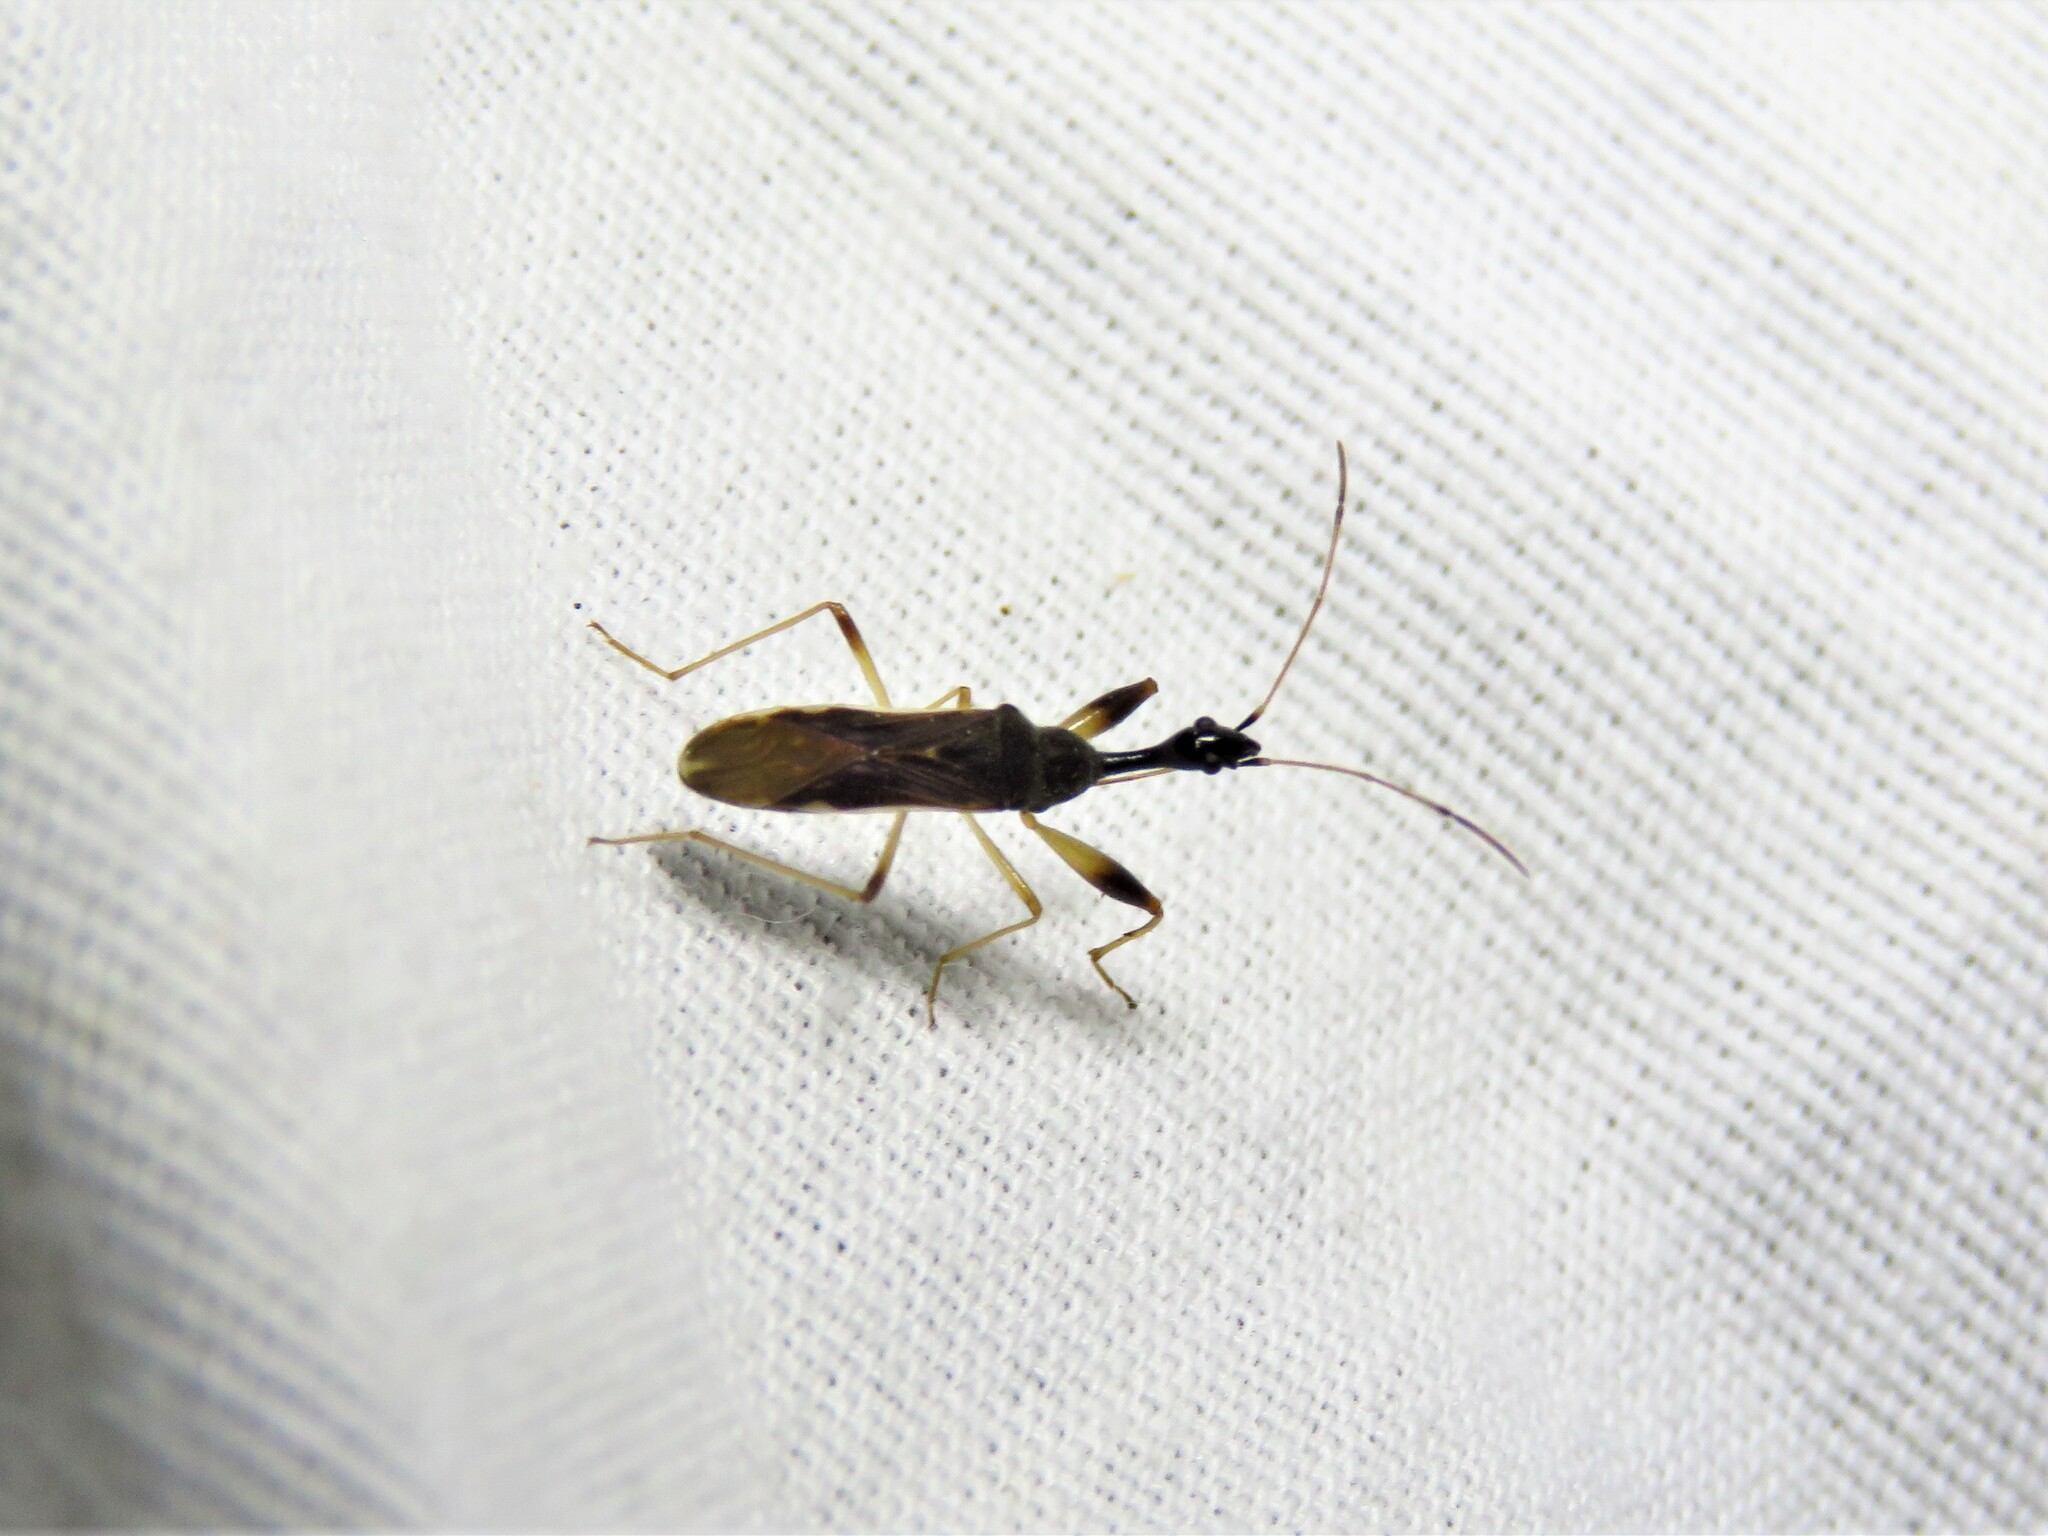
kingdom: Animalia
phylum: Arthropoda
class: Insecta
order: Hemiptera
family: Rhyparochromidae
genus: Myodocha
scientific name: Myodocha serripes
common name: Long-necked seed bug
